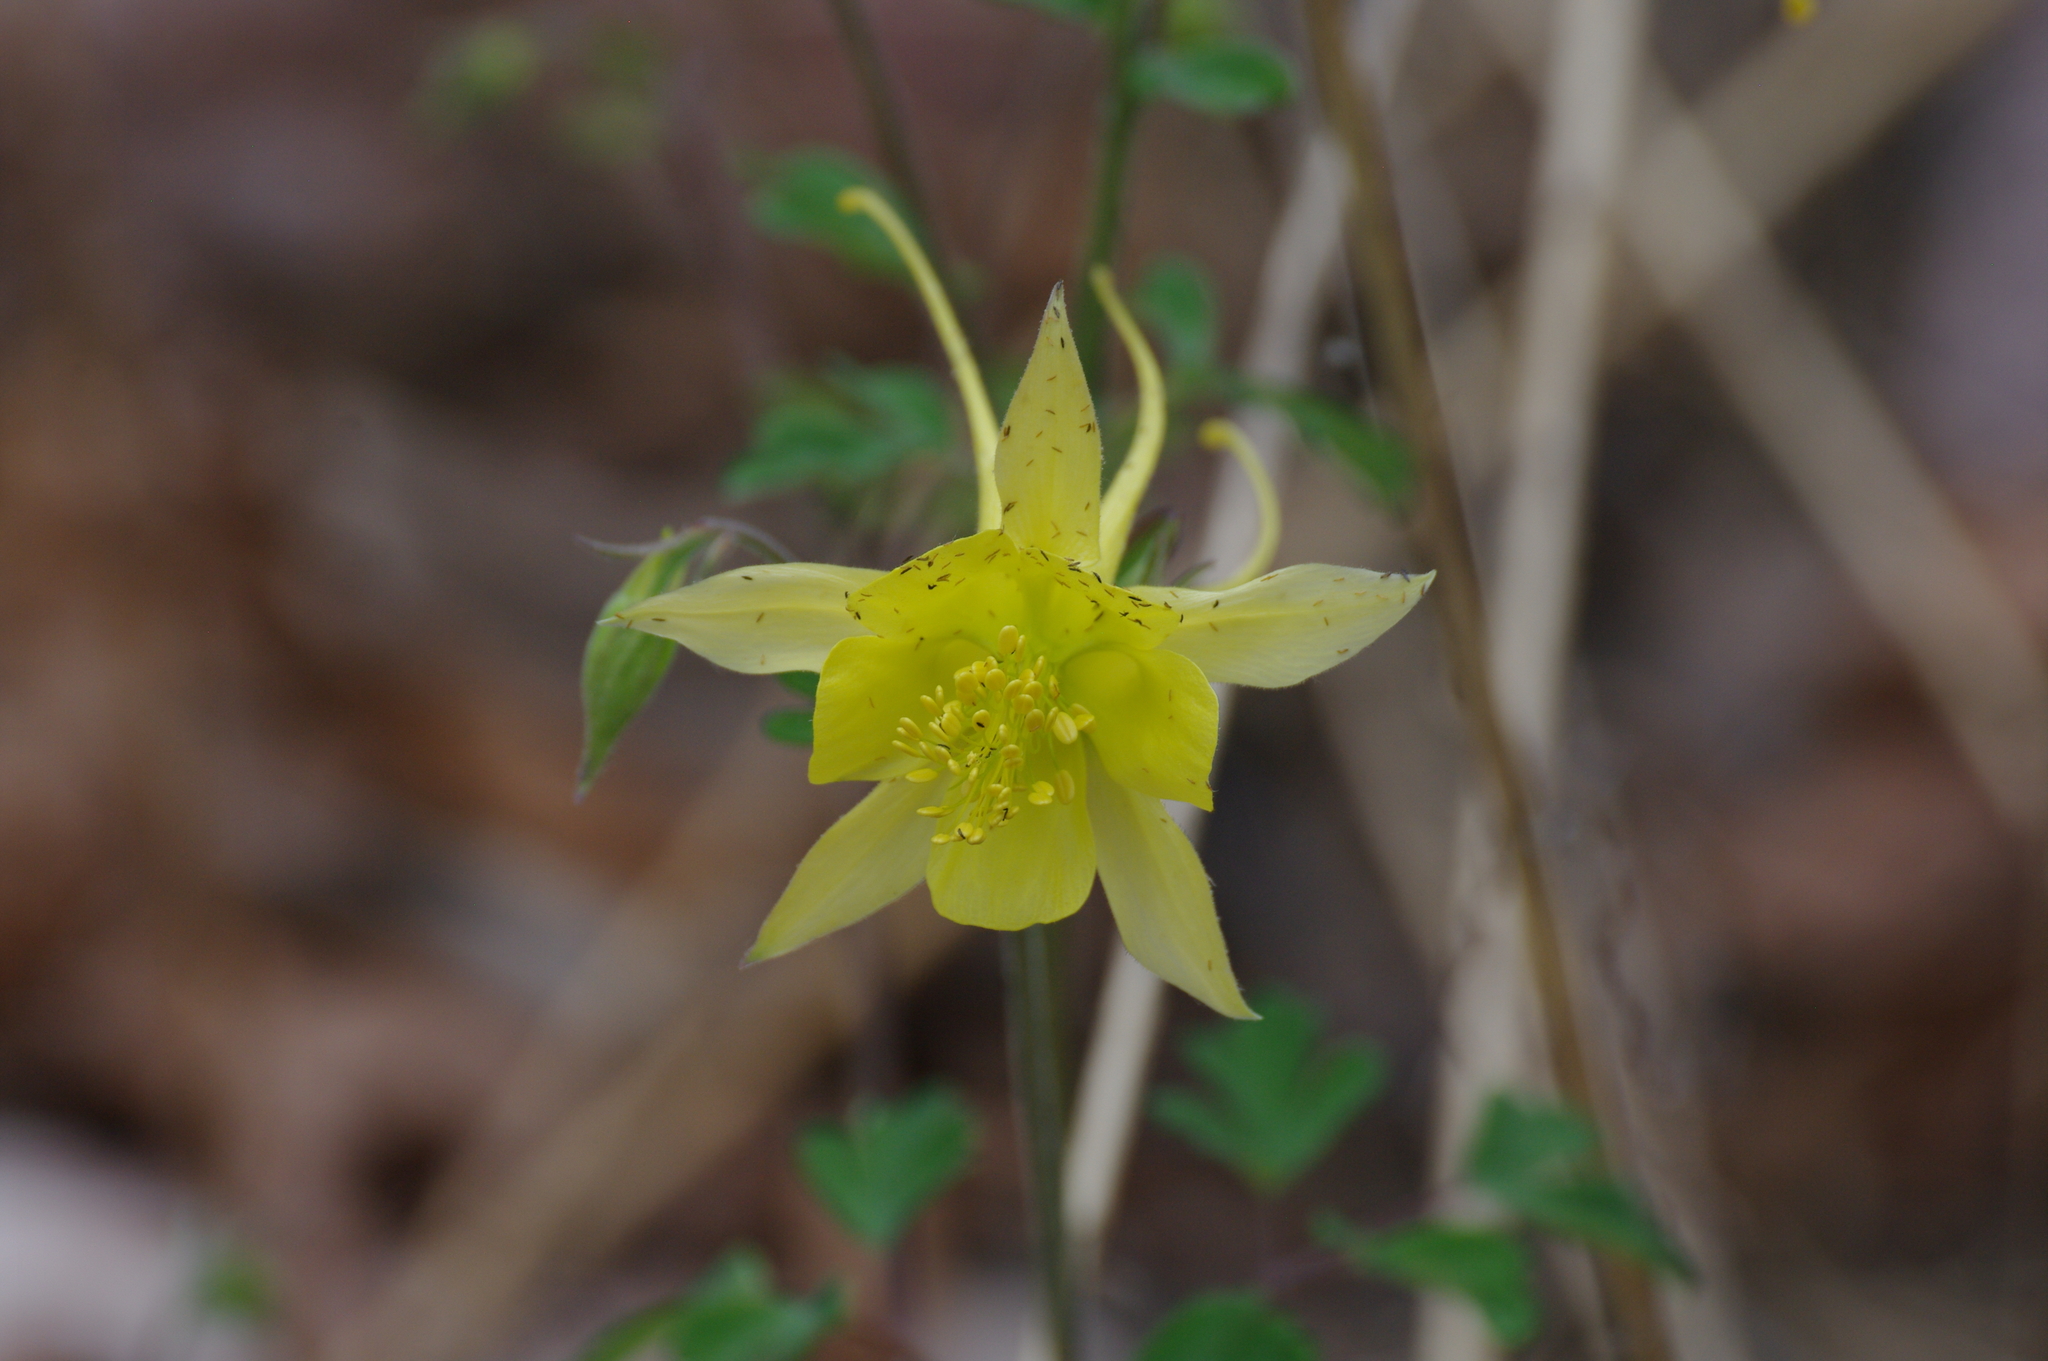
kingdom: Plantae
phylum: Tracheophyta
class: Magnoliopsida
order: Ranunculales
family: Ranunculaceae
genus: Aquilegia
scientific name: Aquilegia chrysantha
